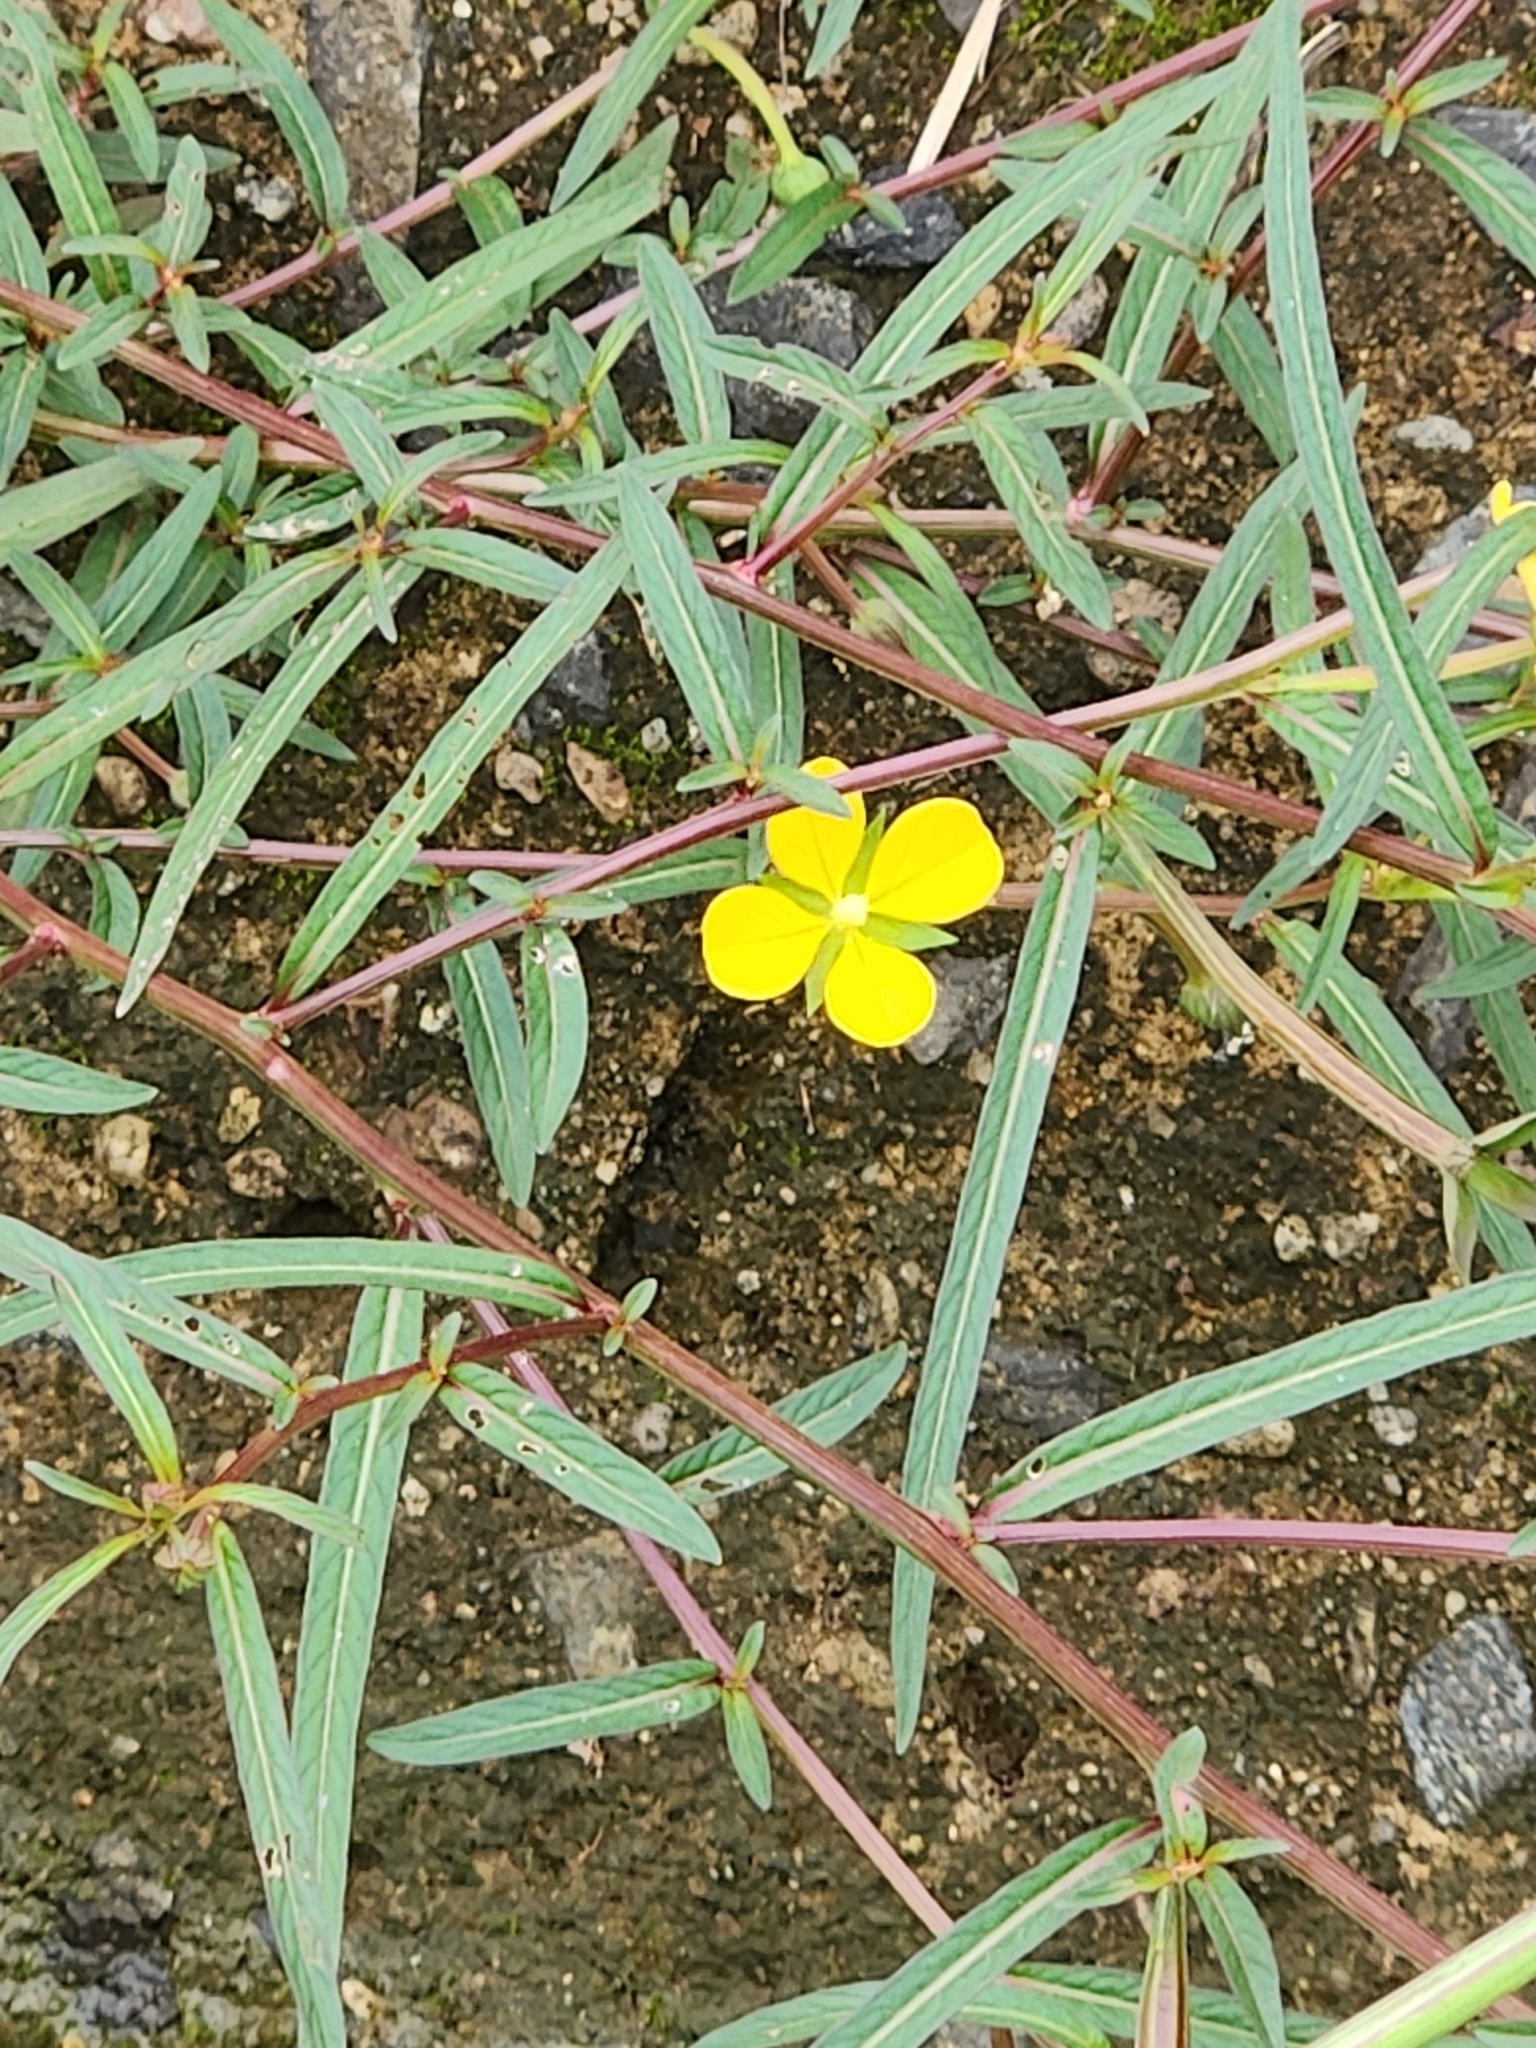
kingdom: Plantae
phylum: Tracheophyta
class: Magnoliopsida
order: Myrtales
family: Onagraceae
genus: Ludwigia
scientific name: Ludwigia octovalvis
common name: Water-primrose
